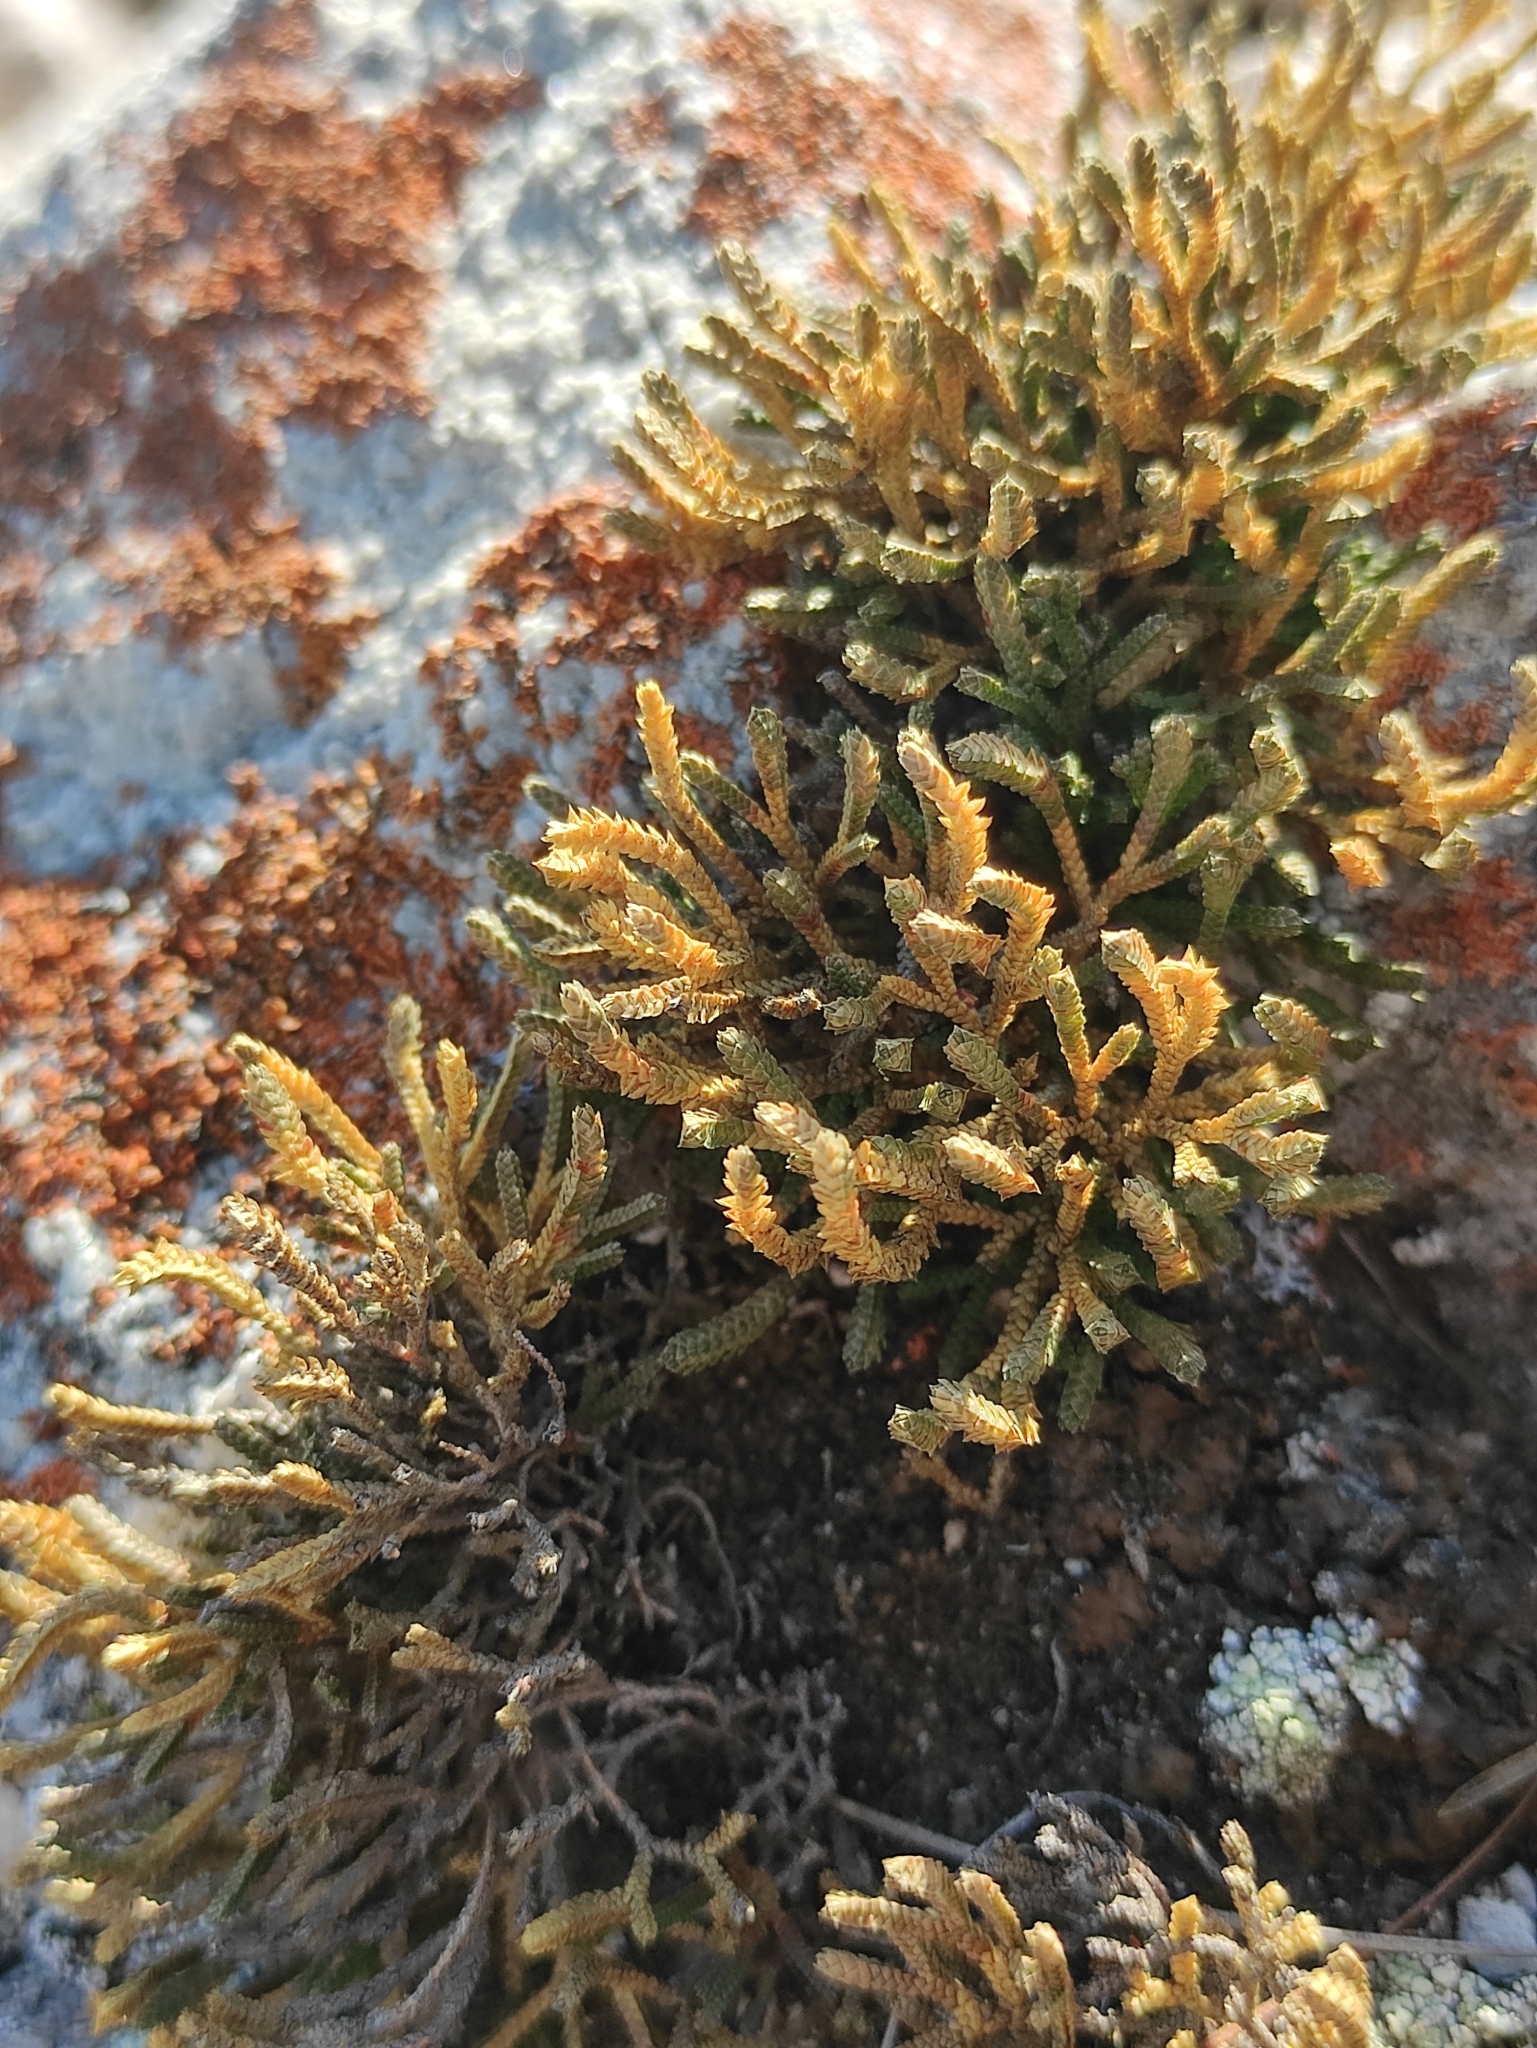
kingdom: Plantae
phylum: Tracheophyta
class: Lycopodiopsida
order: Selaginellales
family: Selaginellaceae
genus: Selaginella
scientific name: Selaginella sanguinolenta
